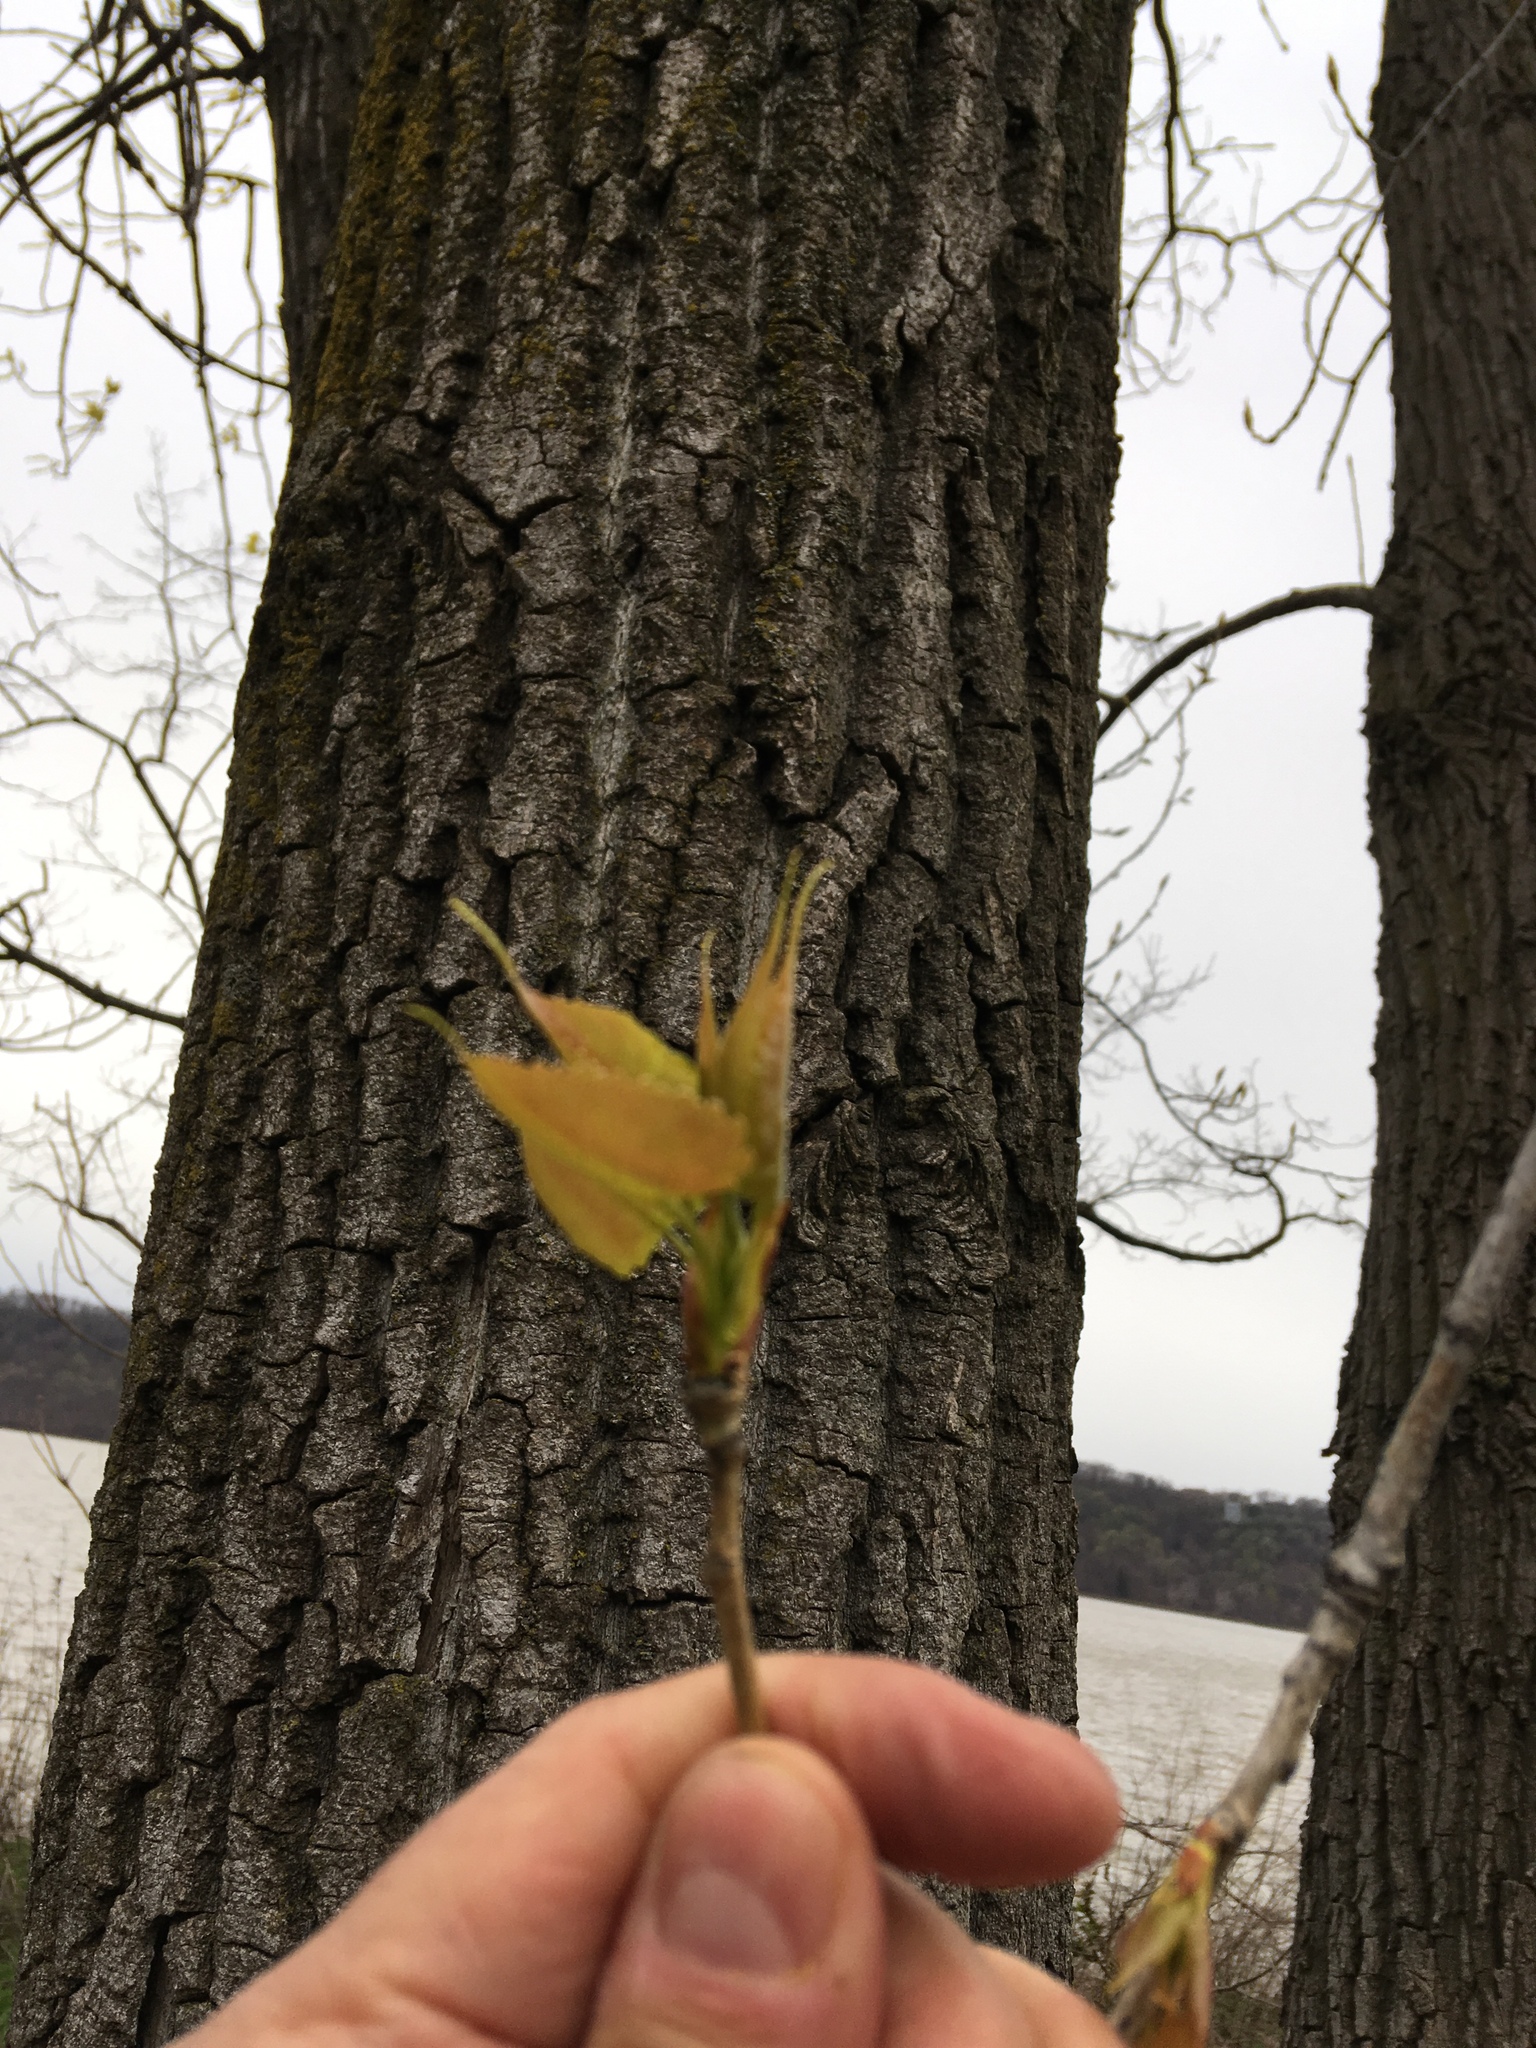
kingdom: Plantae
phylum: Tracheophyta
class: Magnoliopsida
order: Malpighiales
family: Salicaceae
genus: Populus
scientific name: Populus deltoides
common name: Eastern cottonwood
